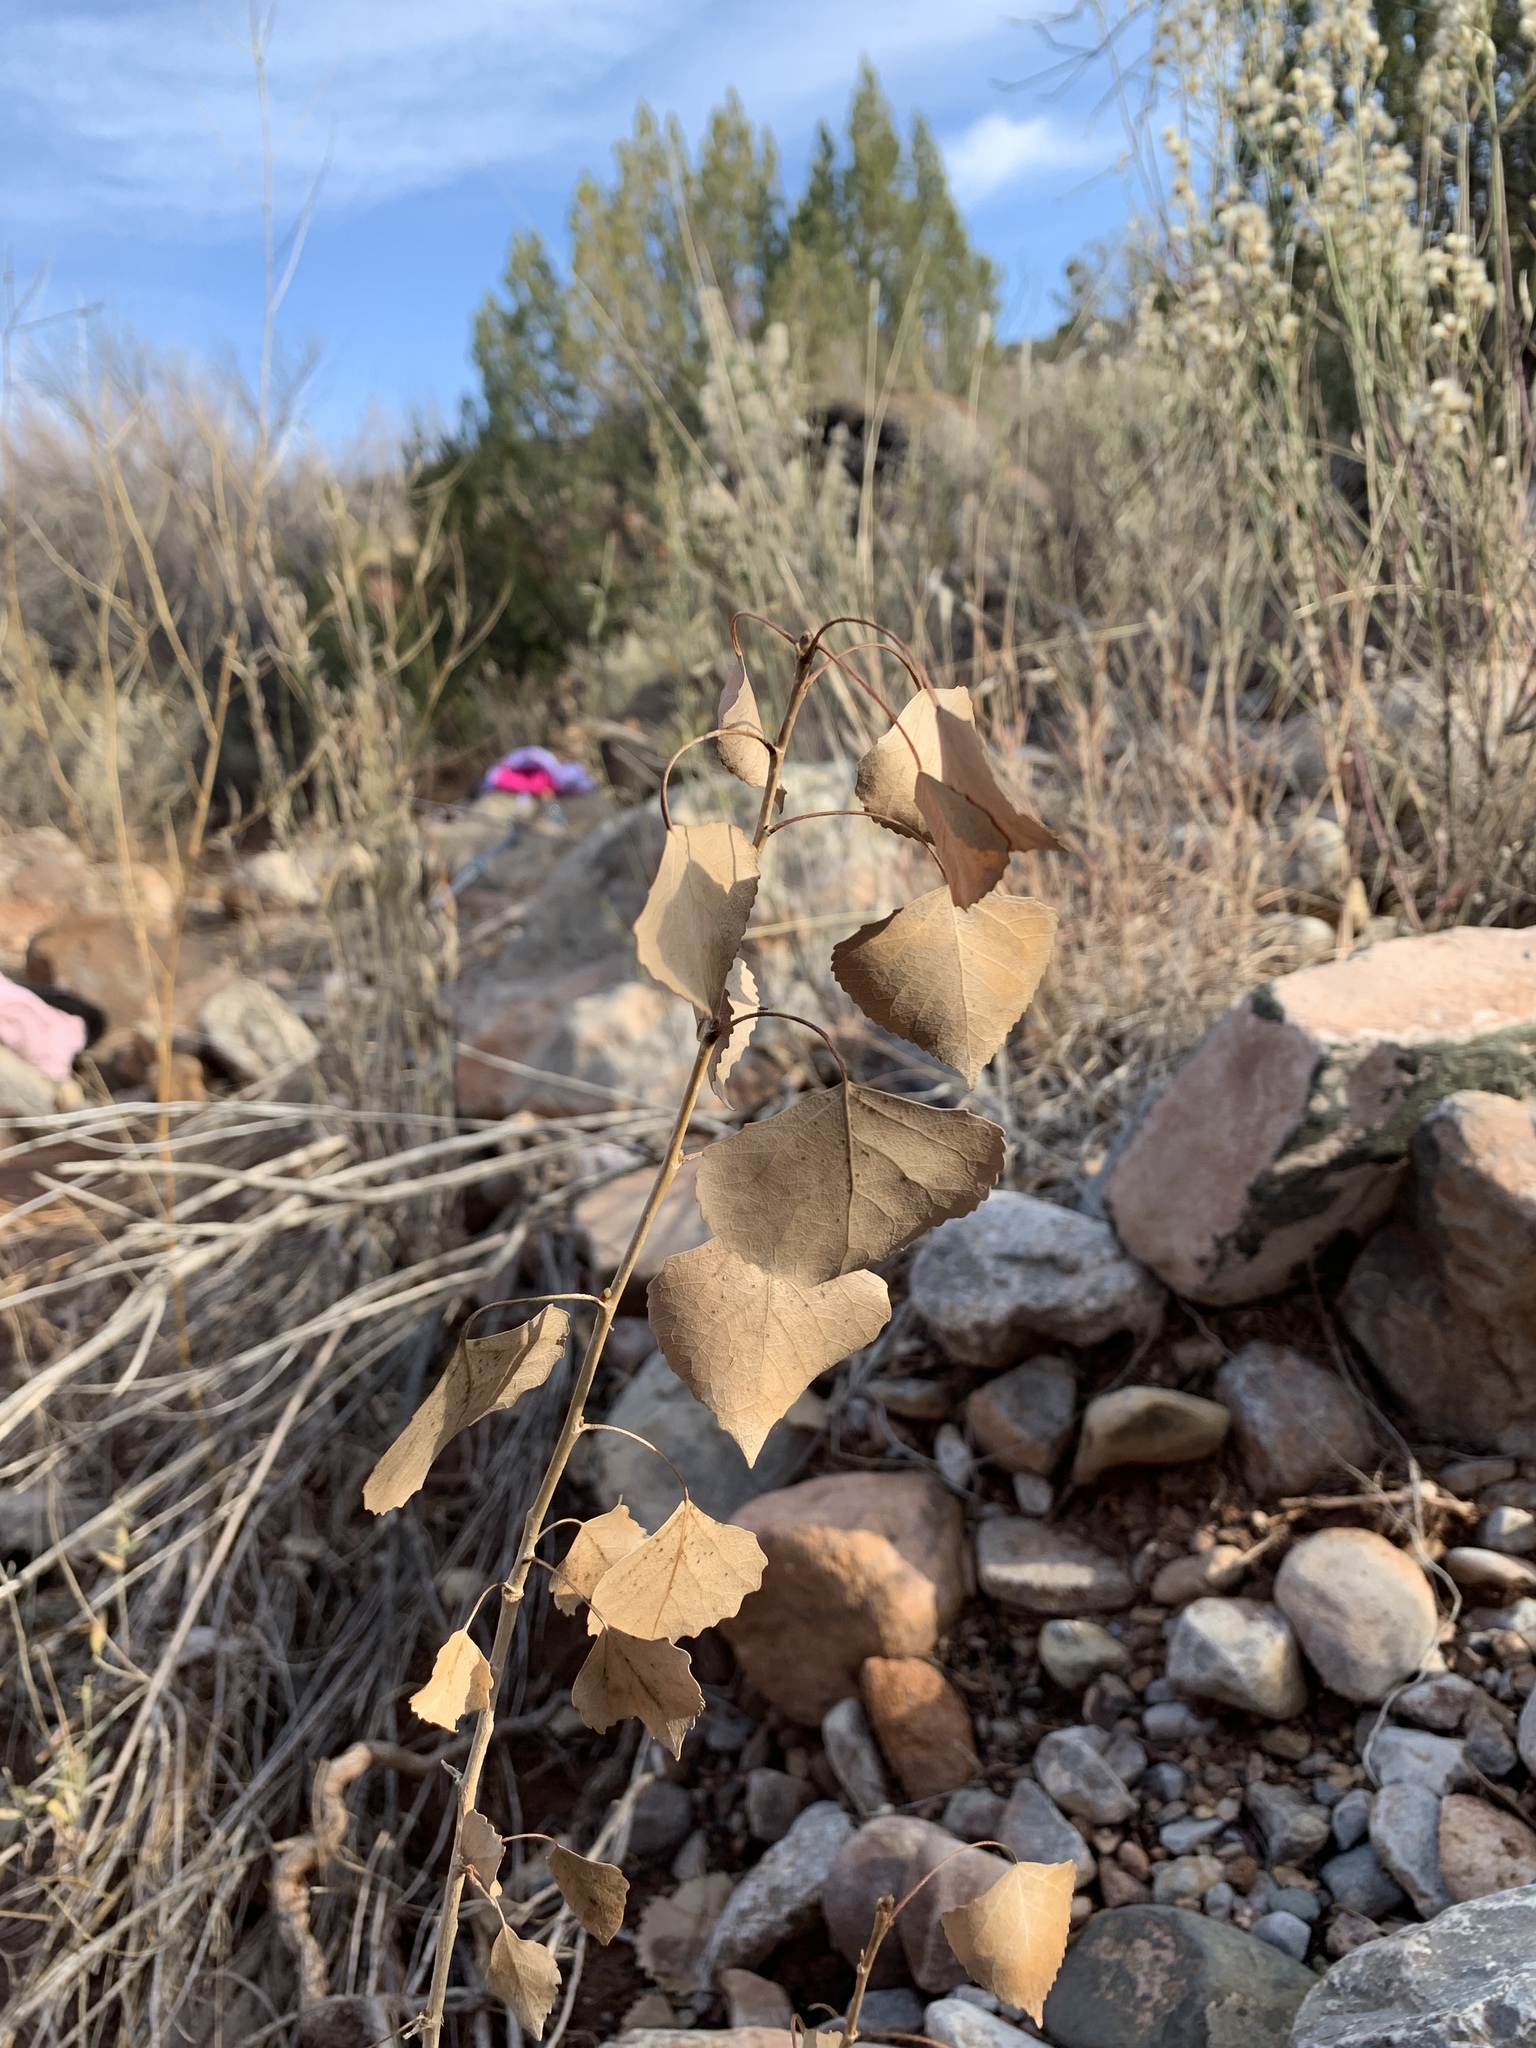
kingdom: Plantae
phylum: Tracheophyta
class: Magnoliopsida
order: Malpighiales
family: Salicaceae
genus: Populus
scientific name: Populus fremontii
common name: Fremont's cottonwood
